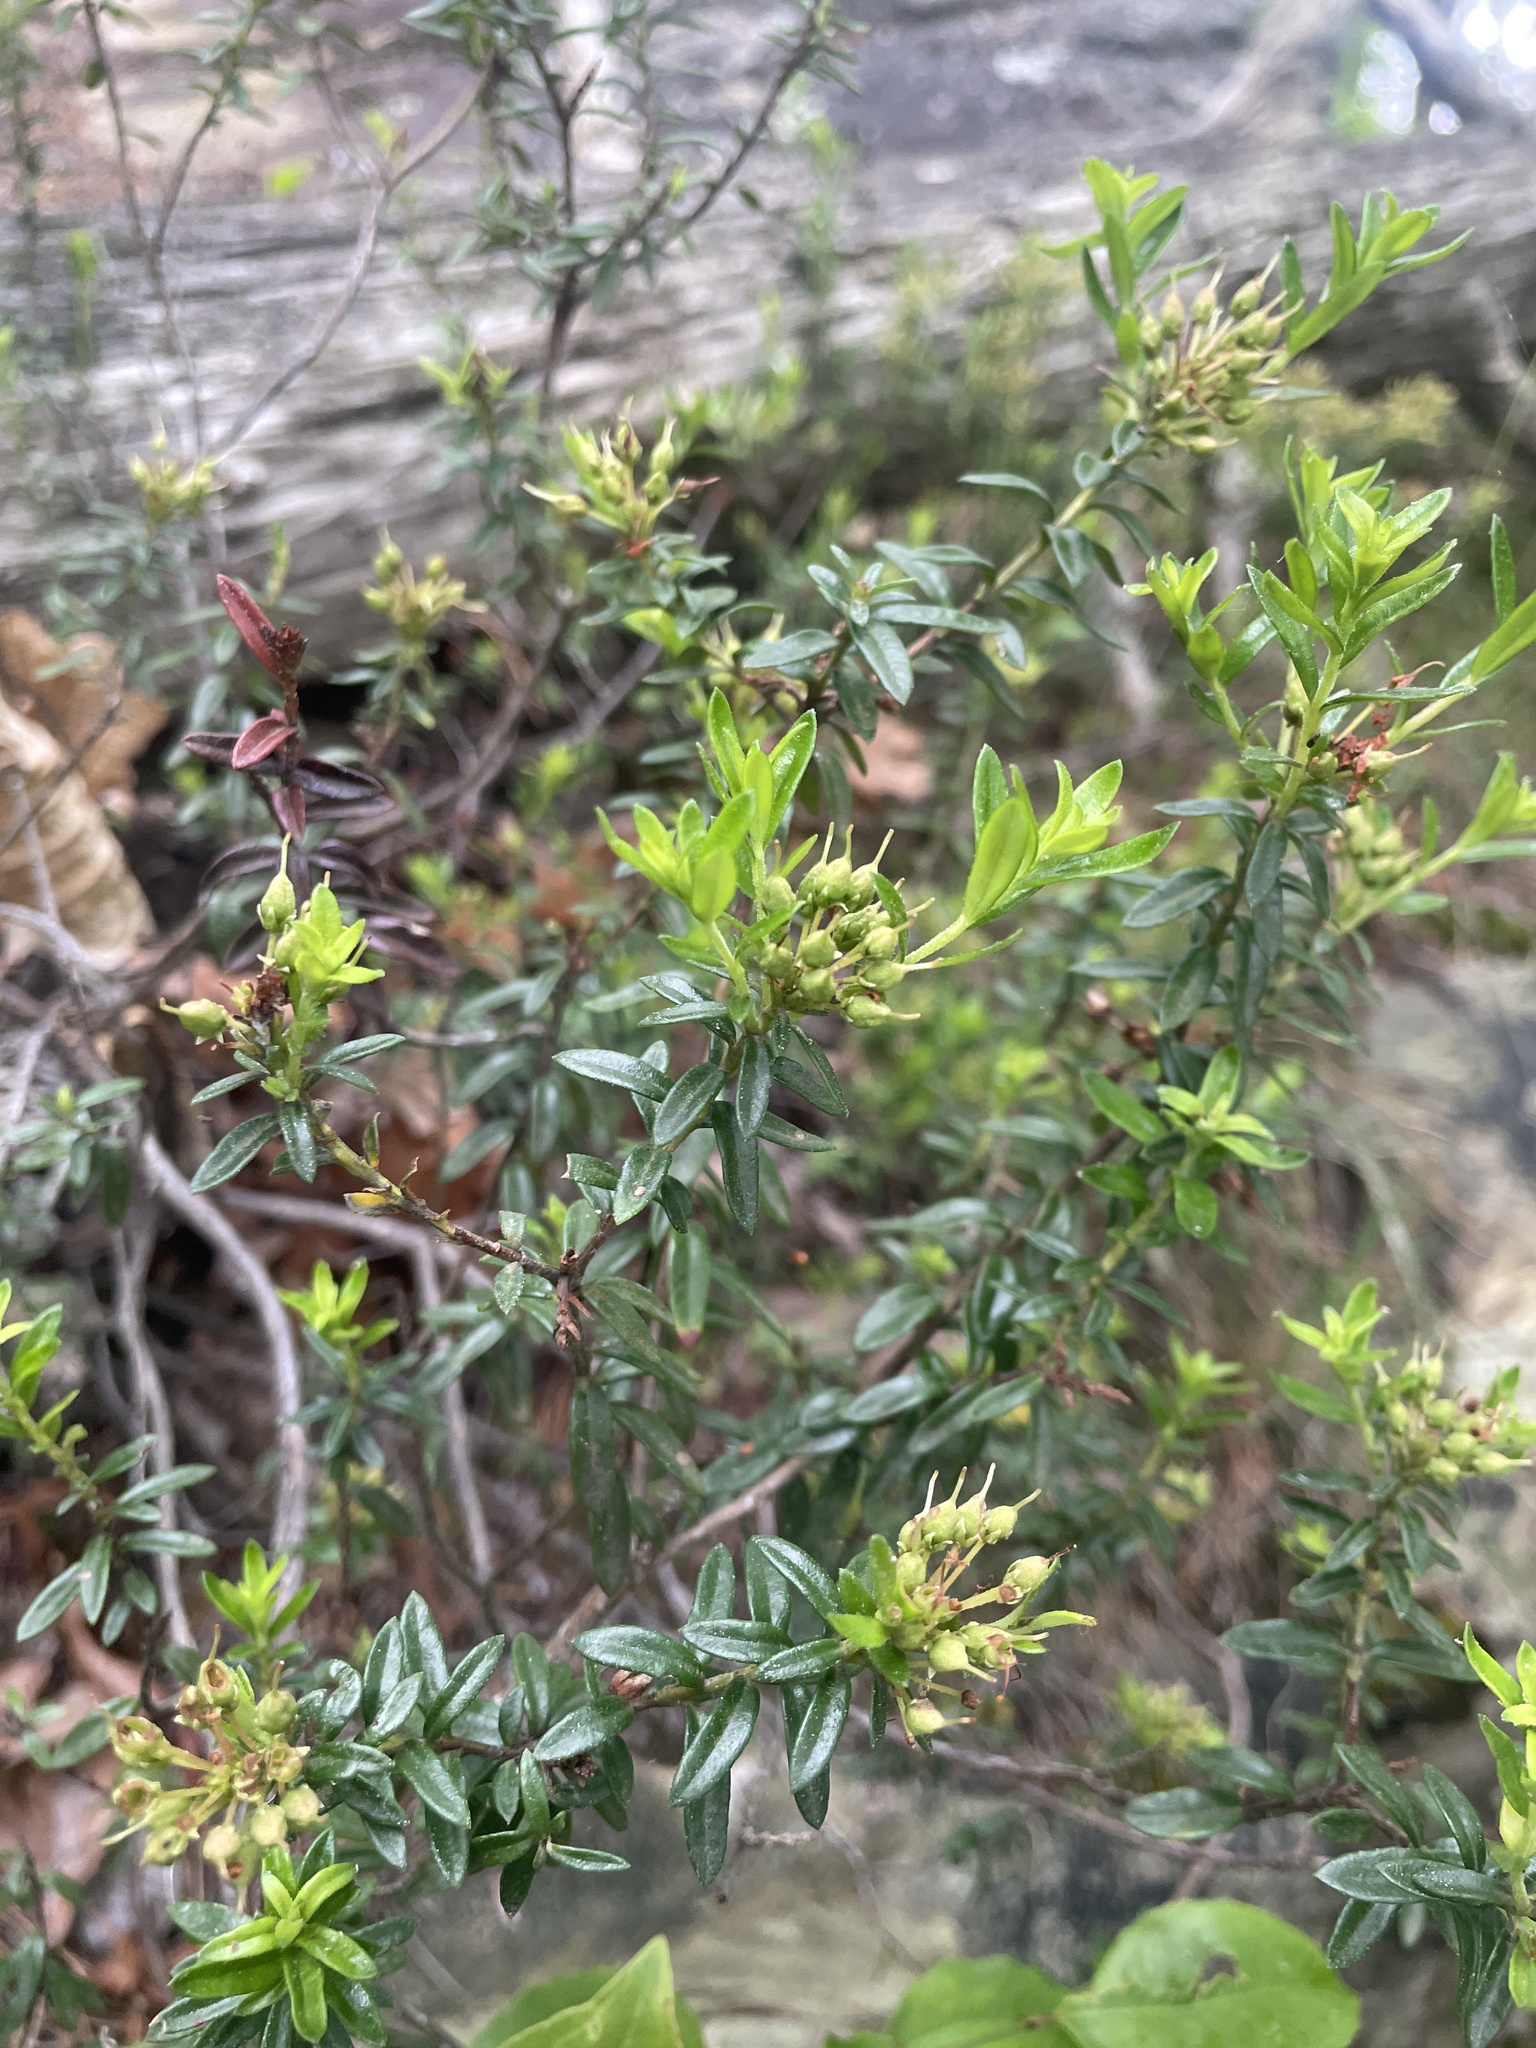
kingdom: Plantae
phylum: Tracheophyta
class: Magnoliopsida
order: Ericales
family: Ericaceae
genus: Kalmia
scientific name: Kalmia buxifolia
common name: Sandmyrtle
